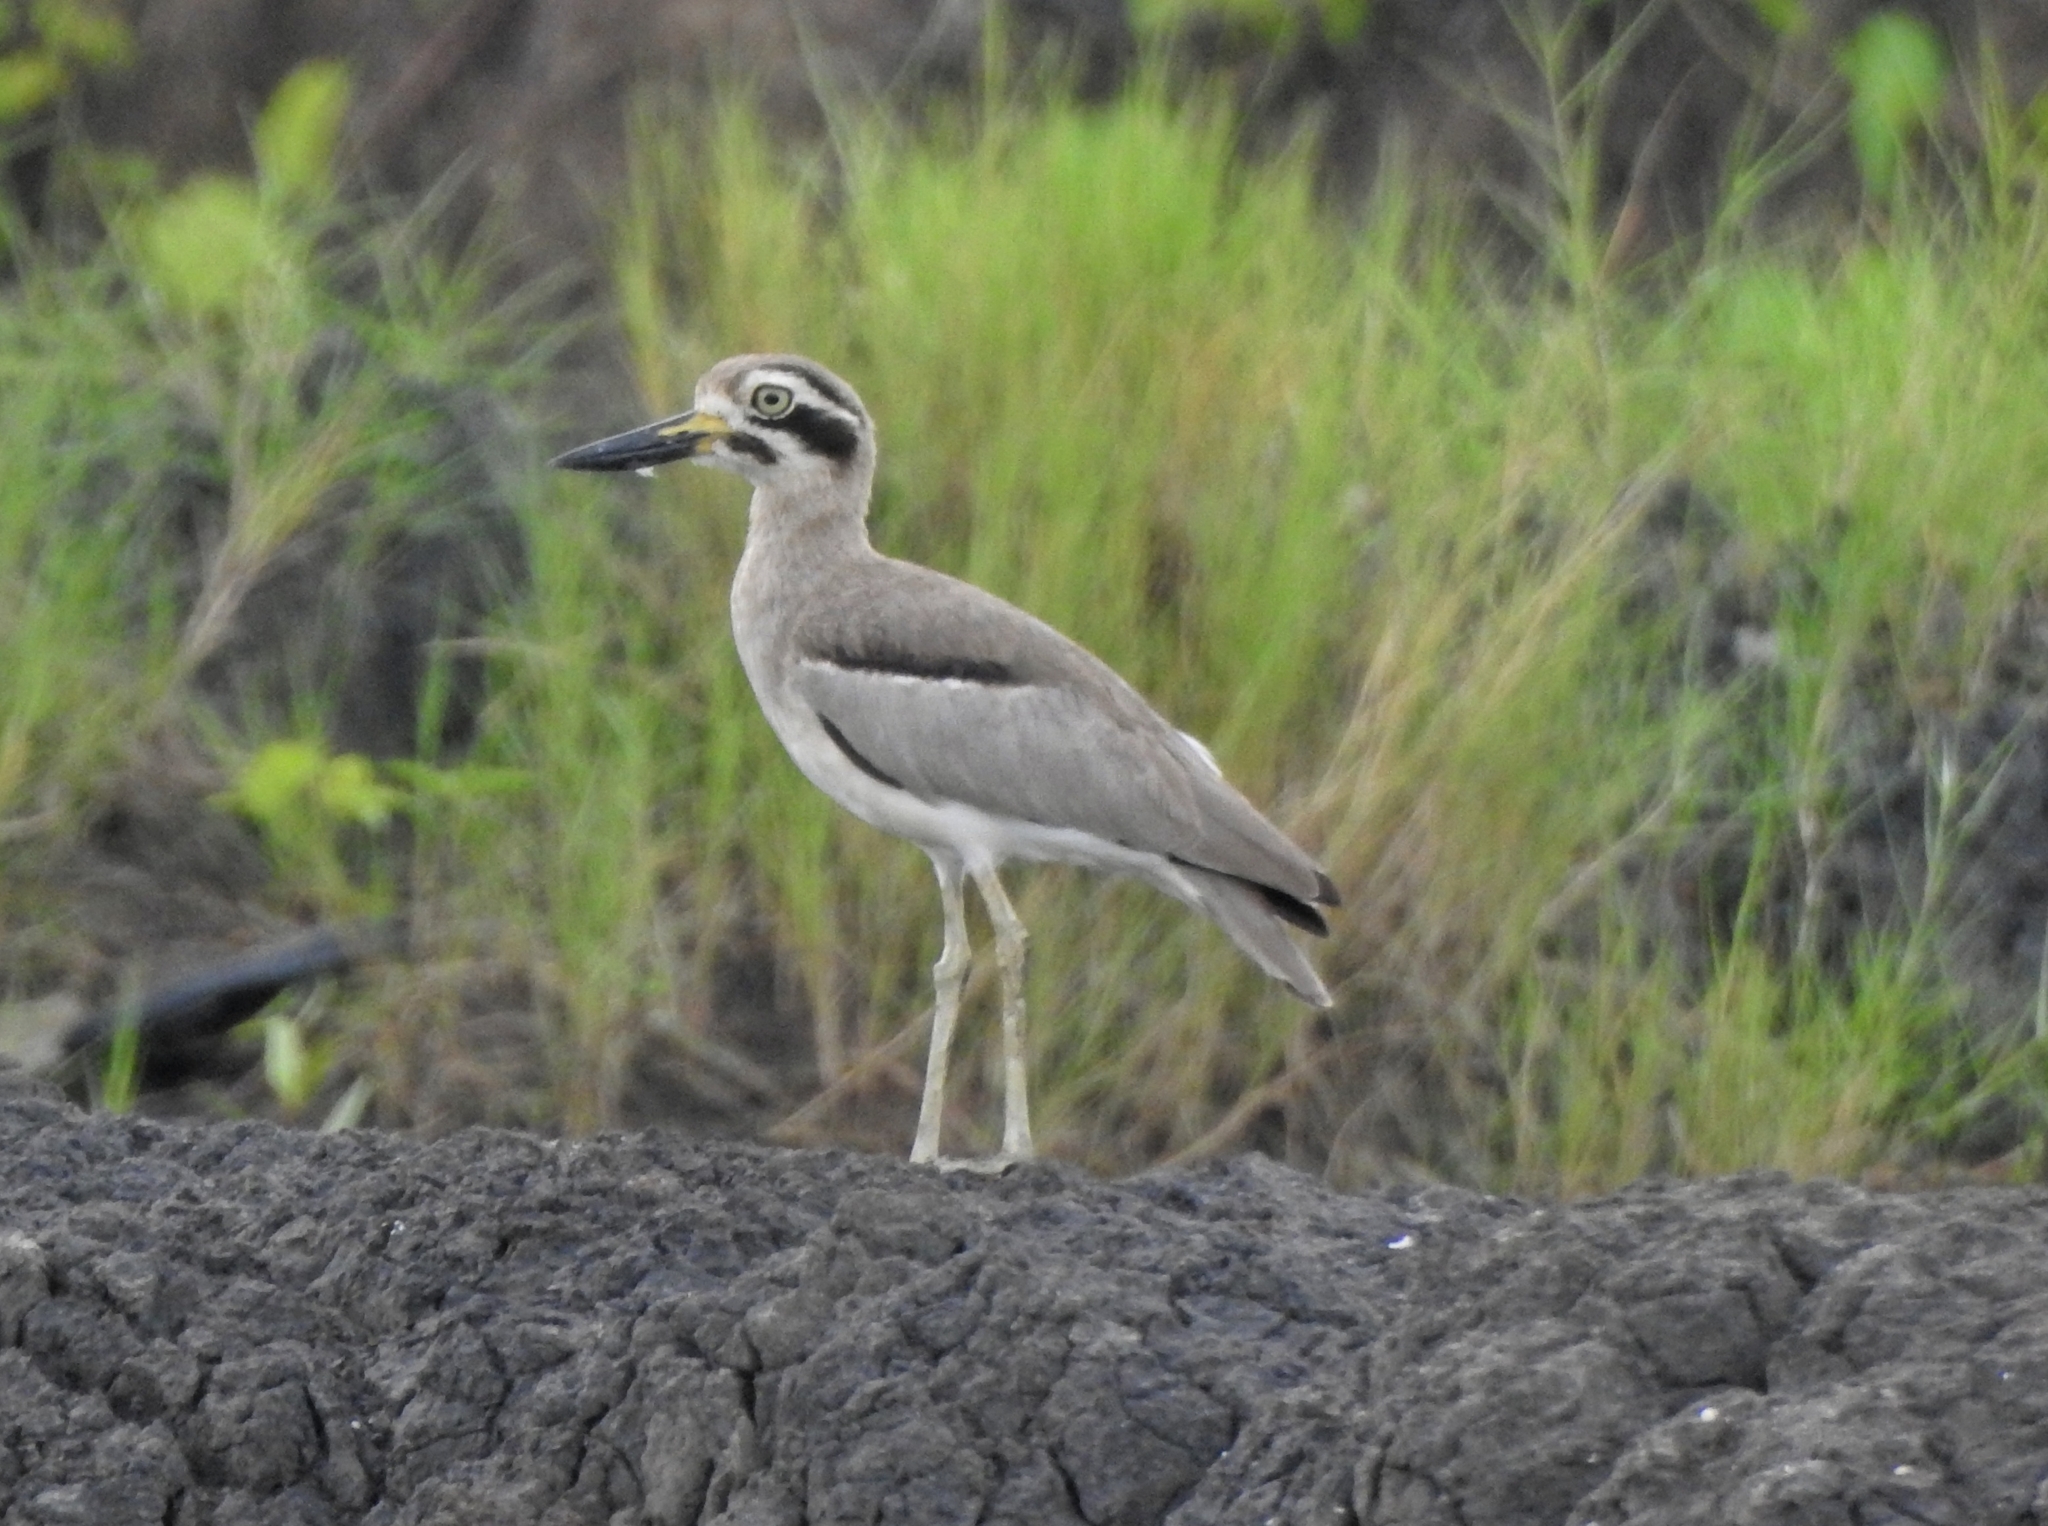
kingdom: Animalia
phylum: Chordata
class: Aves
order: Charadriiformes
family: Burhinidae
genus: Esacus
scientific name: Esacus recurvirostris
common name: Great stone-curlew
